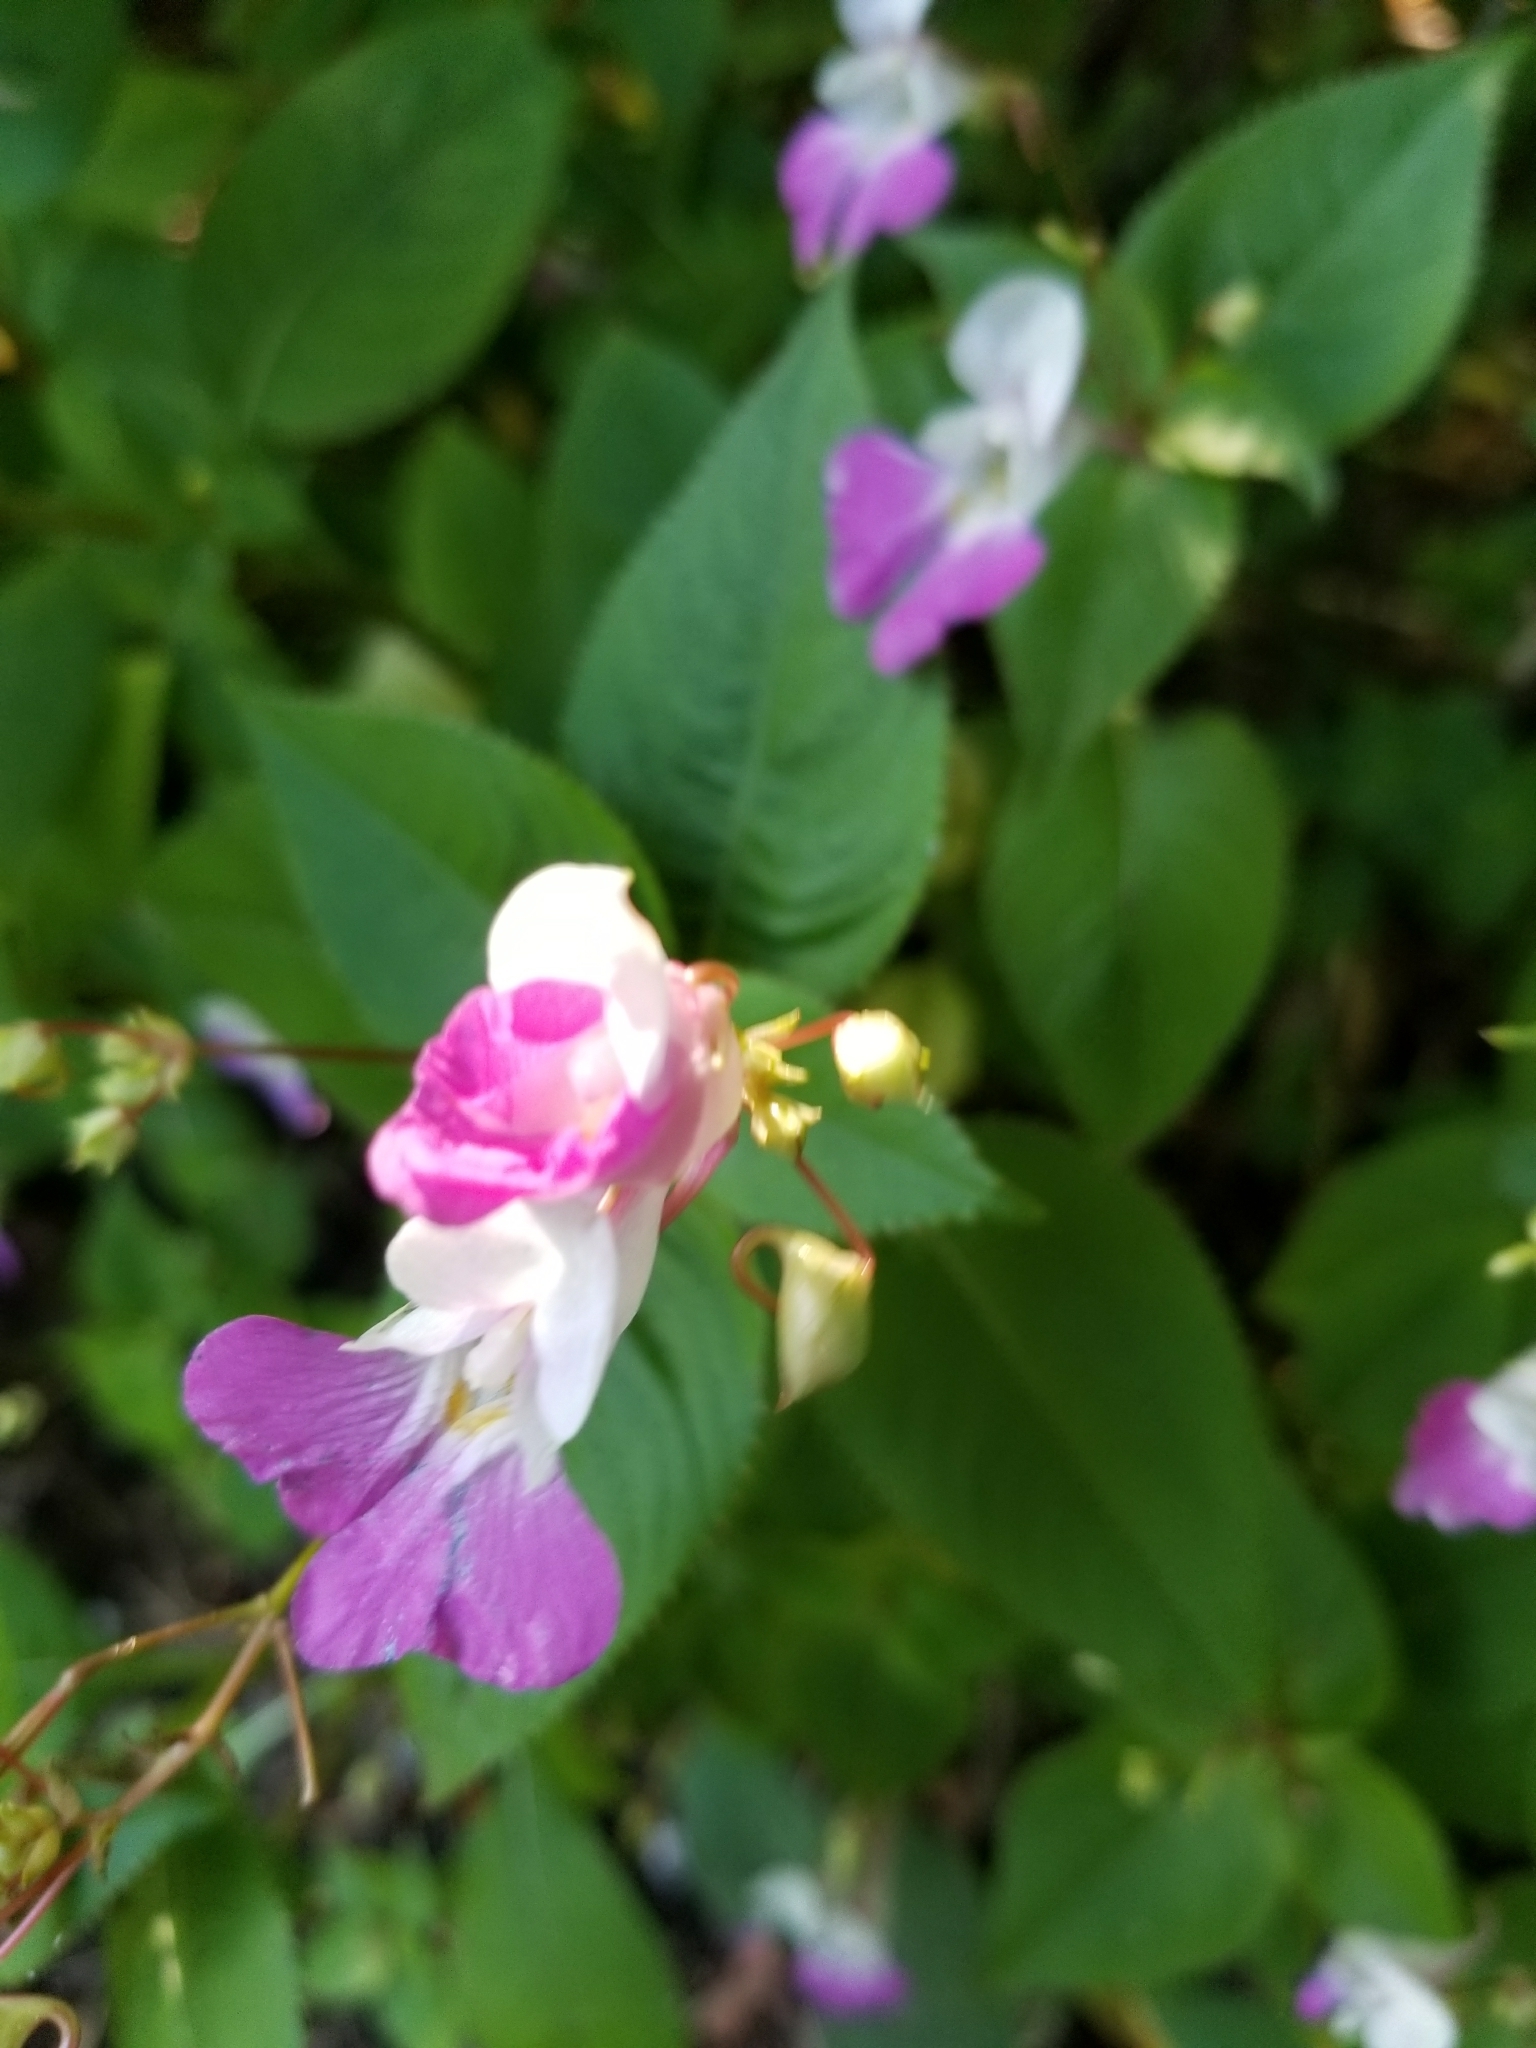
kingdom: Plantae
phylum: Tracheophyta
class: Magnoliopsida
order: Ericales
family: Balsaminaceae
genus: Impatiens
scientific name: Impatiens balfourii
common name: Balfour's touch-me-not
